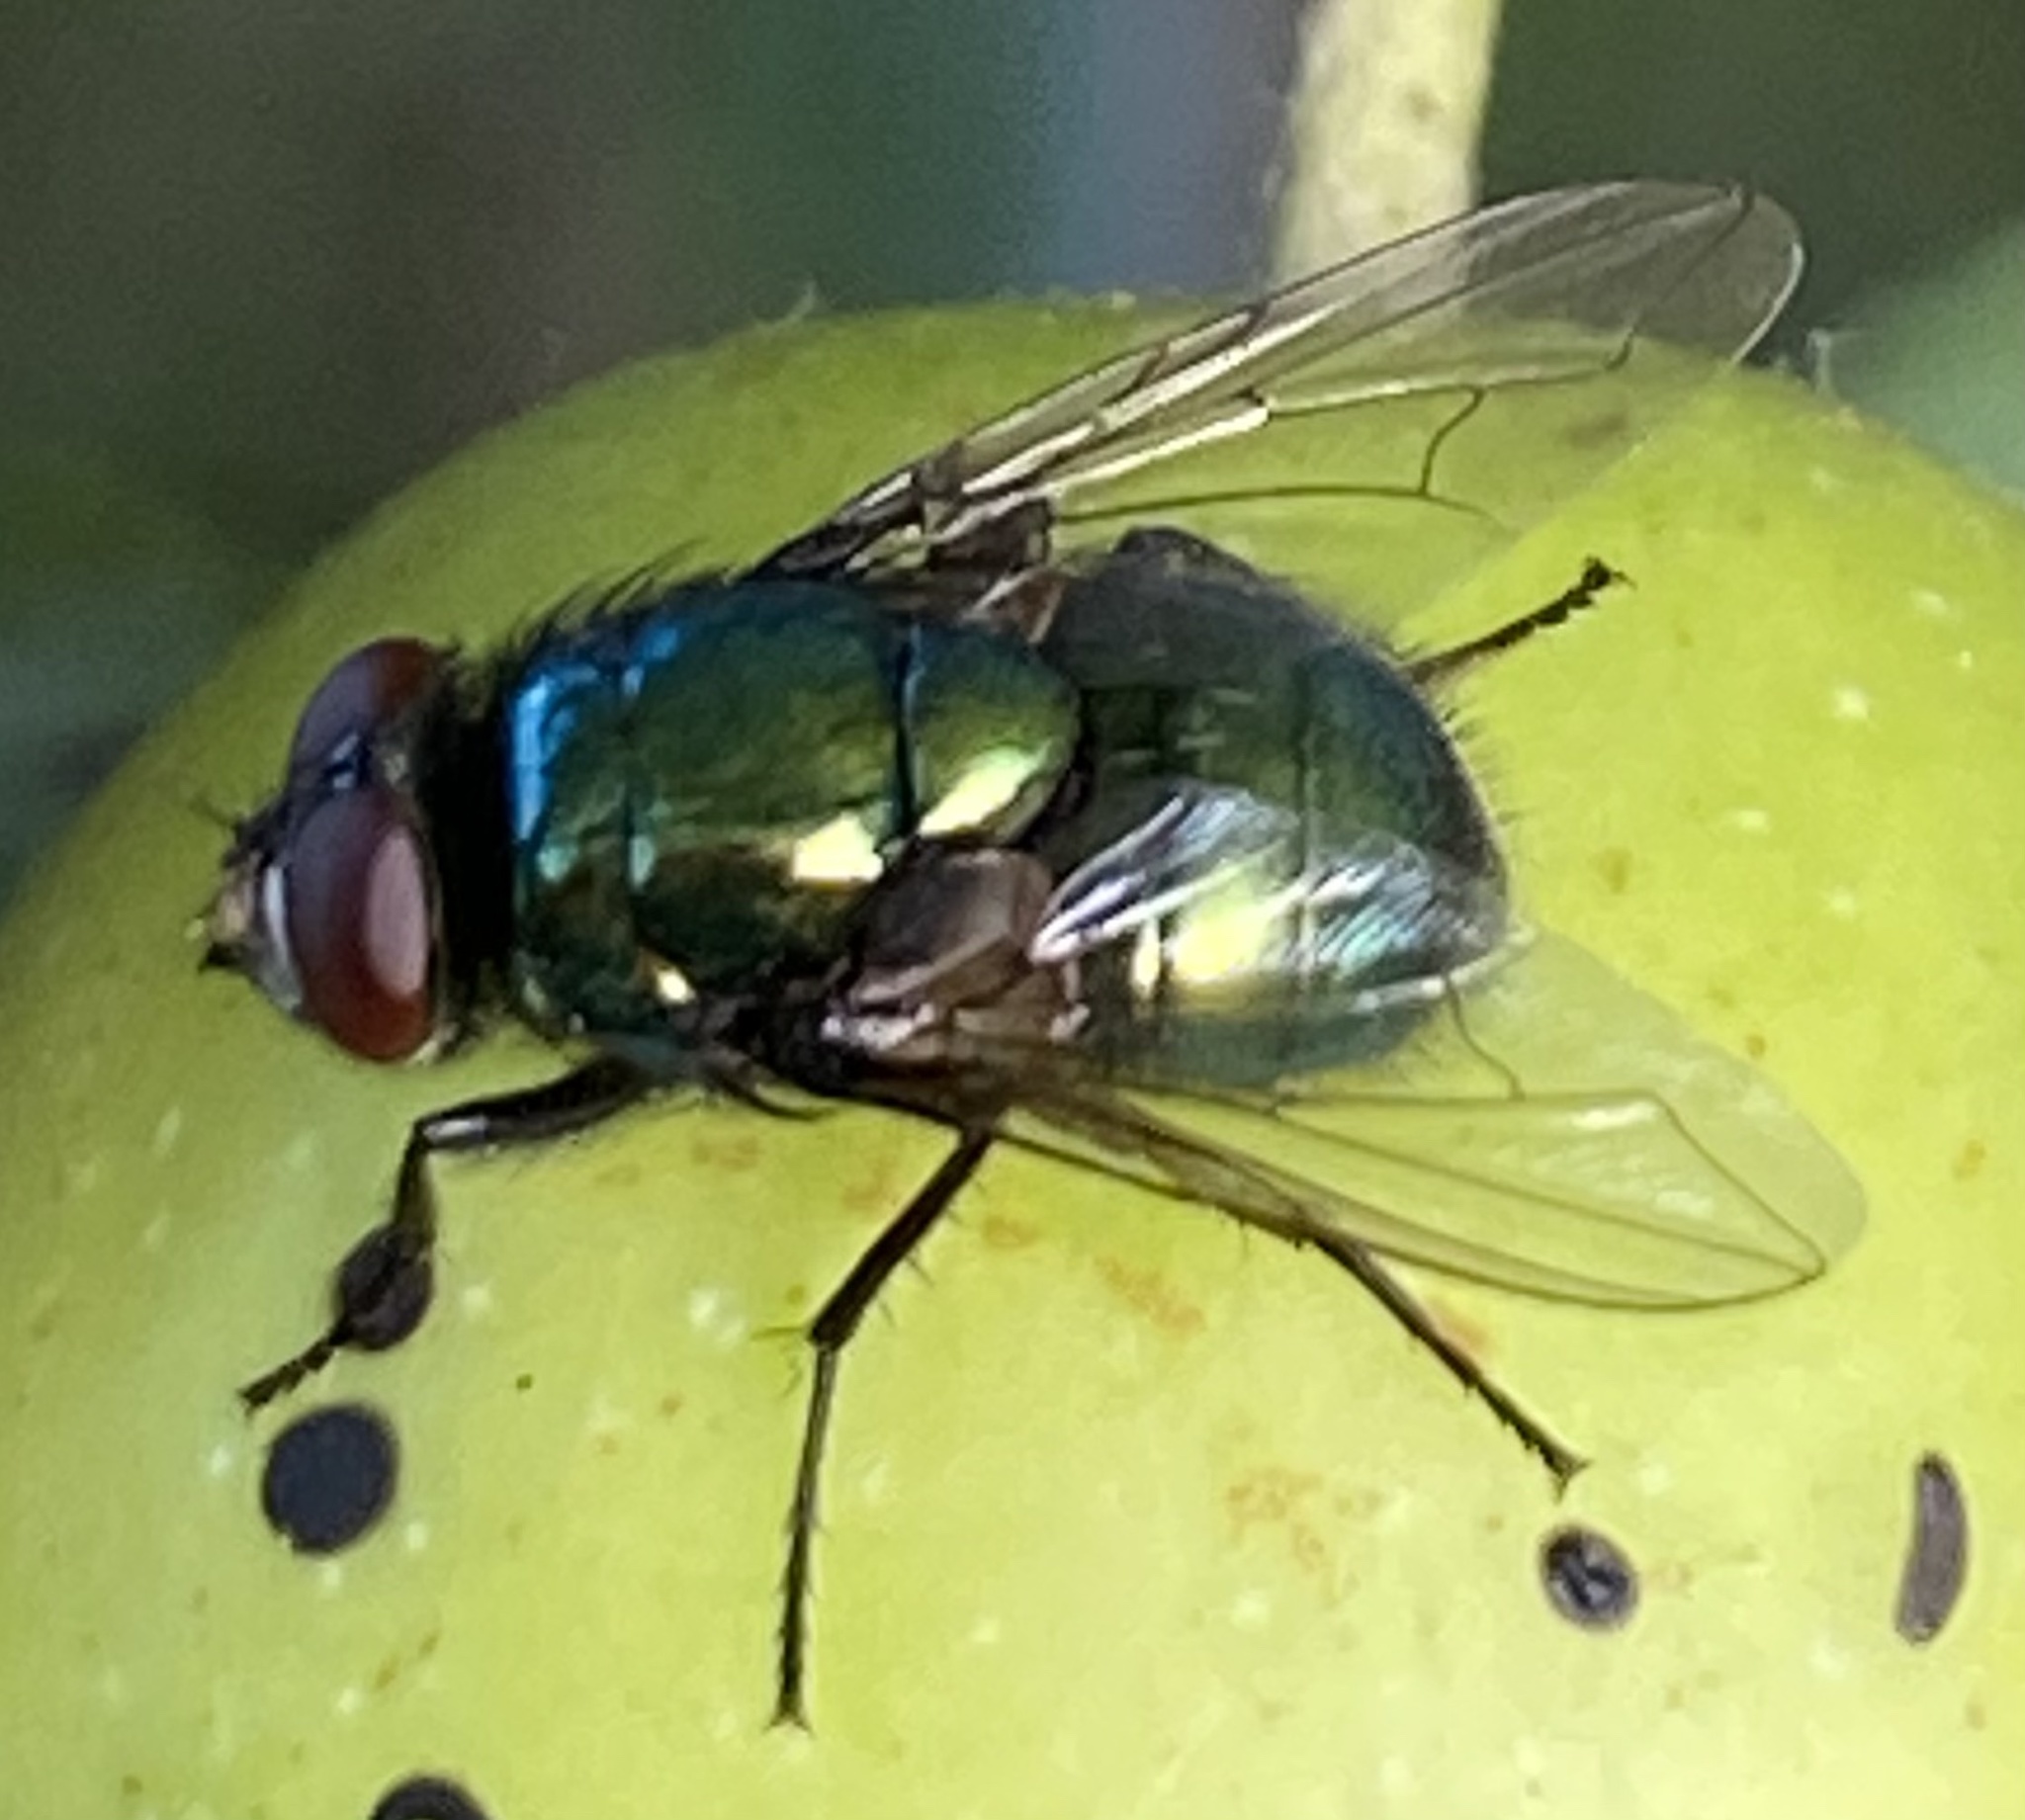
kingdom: Animalia
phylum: Arthropoda
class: Insecta
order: Diptera
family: Muscidae
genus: Neomyia
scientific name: Neomyia cornicina
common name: House fly
